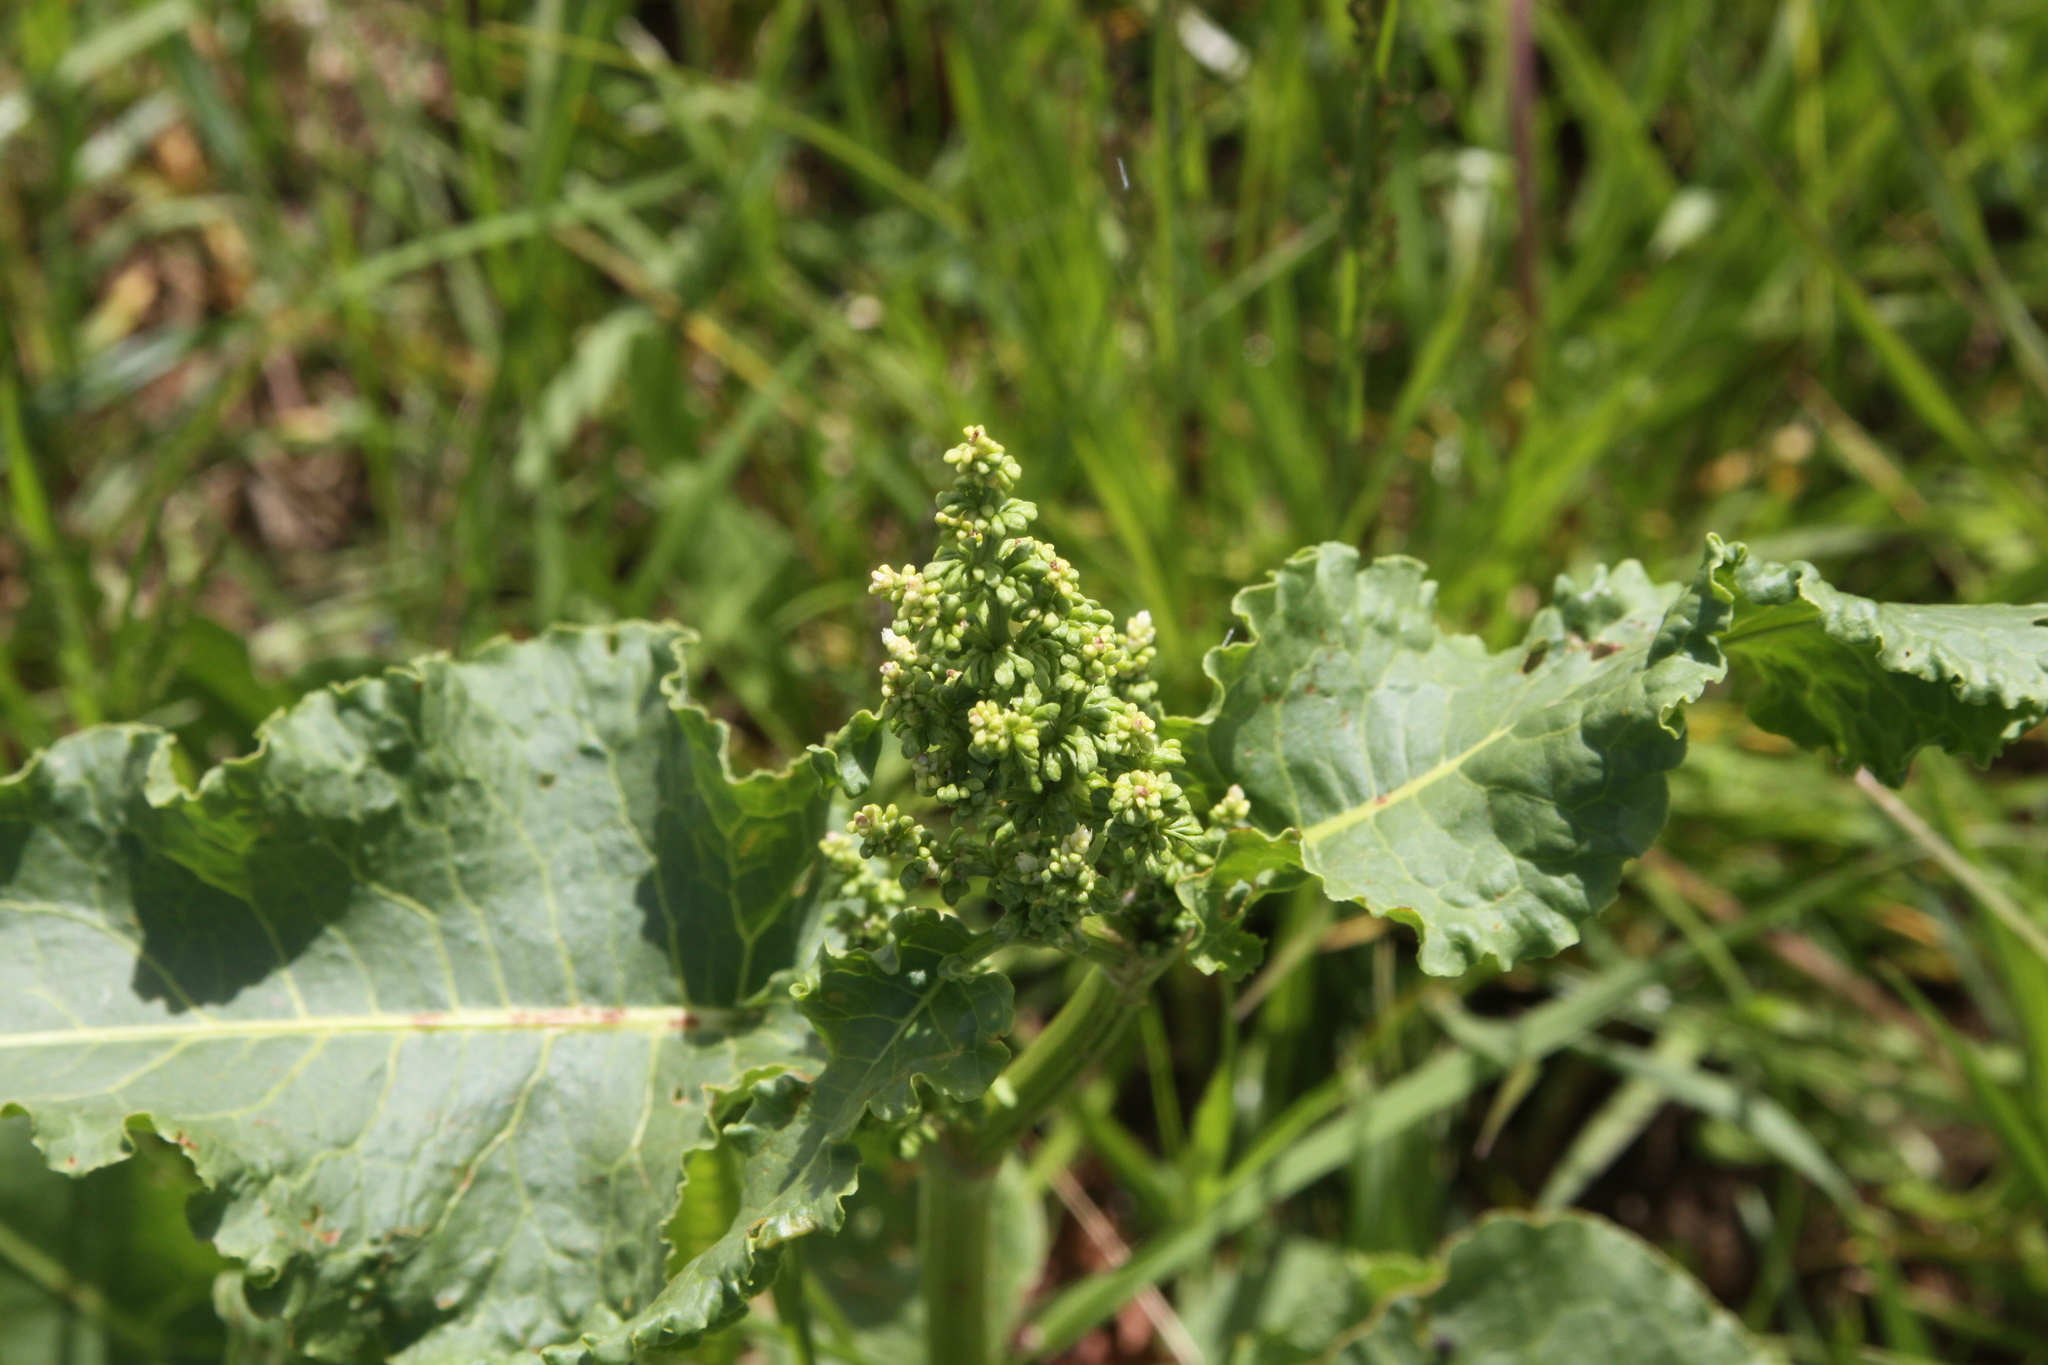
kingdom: Plantae
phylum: Tracheophyta
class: Magnoliopsida
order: Caryophyllales
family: Polygonaceae
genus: Rumex
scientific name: Rumex confertus
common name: Russian dock
